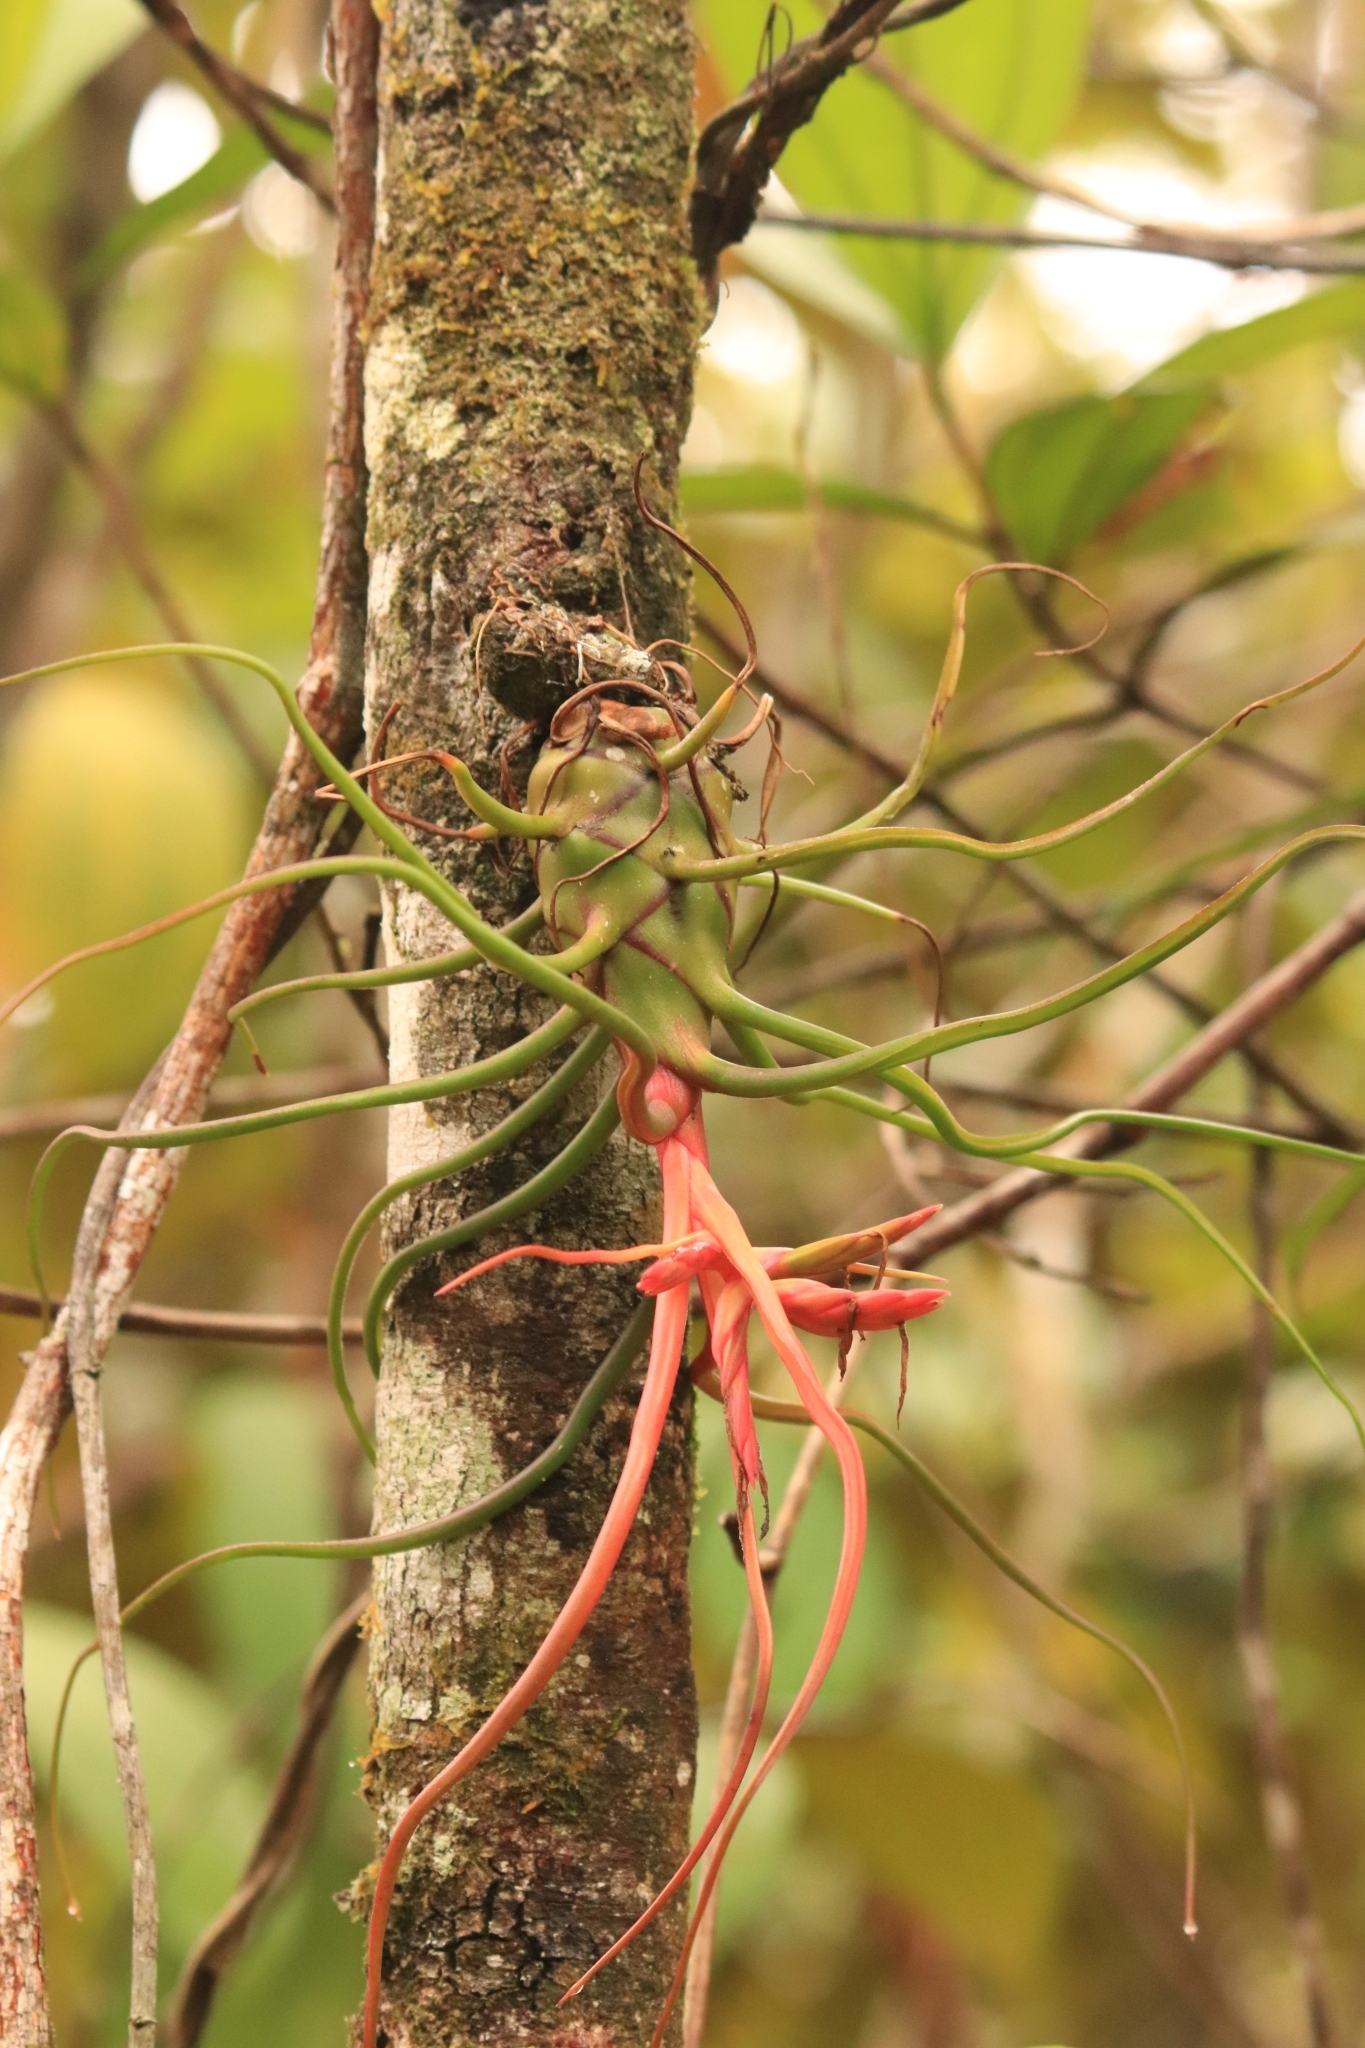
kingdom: Plantae
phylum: Tracheophyta
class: Liliopsida
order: Poales
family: Bromeliaceae
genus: Tillandsia
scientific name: Tillandsia bulbosa
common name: Bulbous airplant
